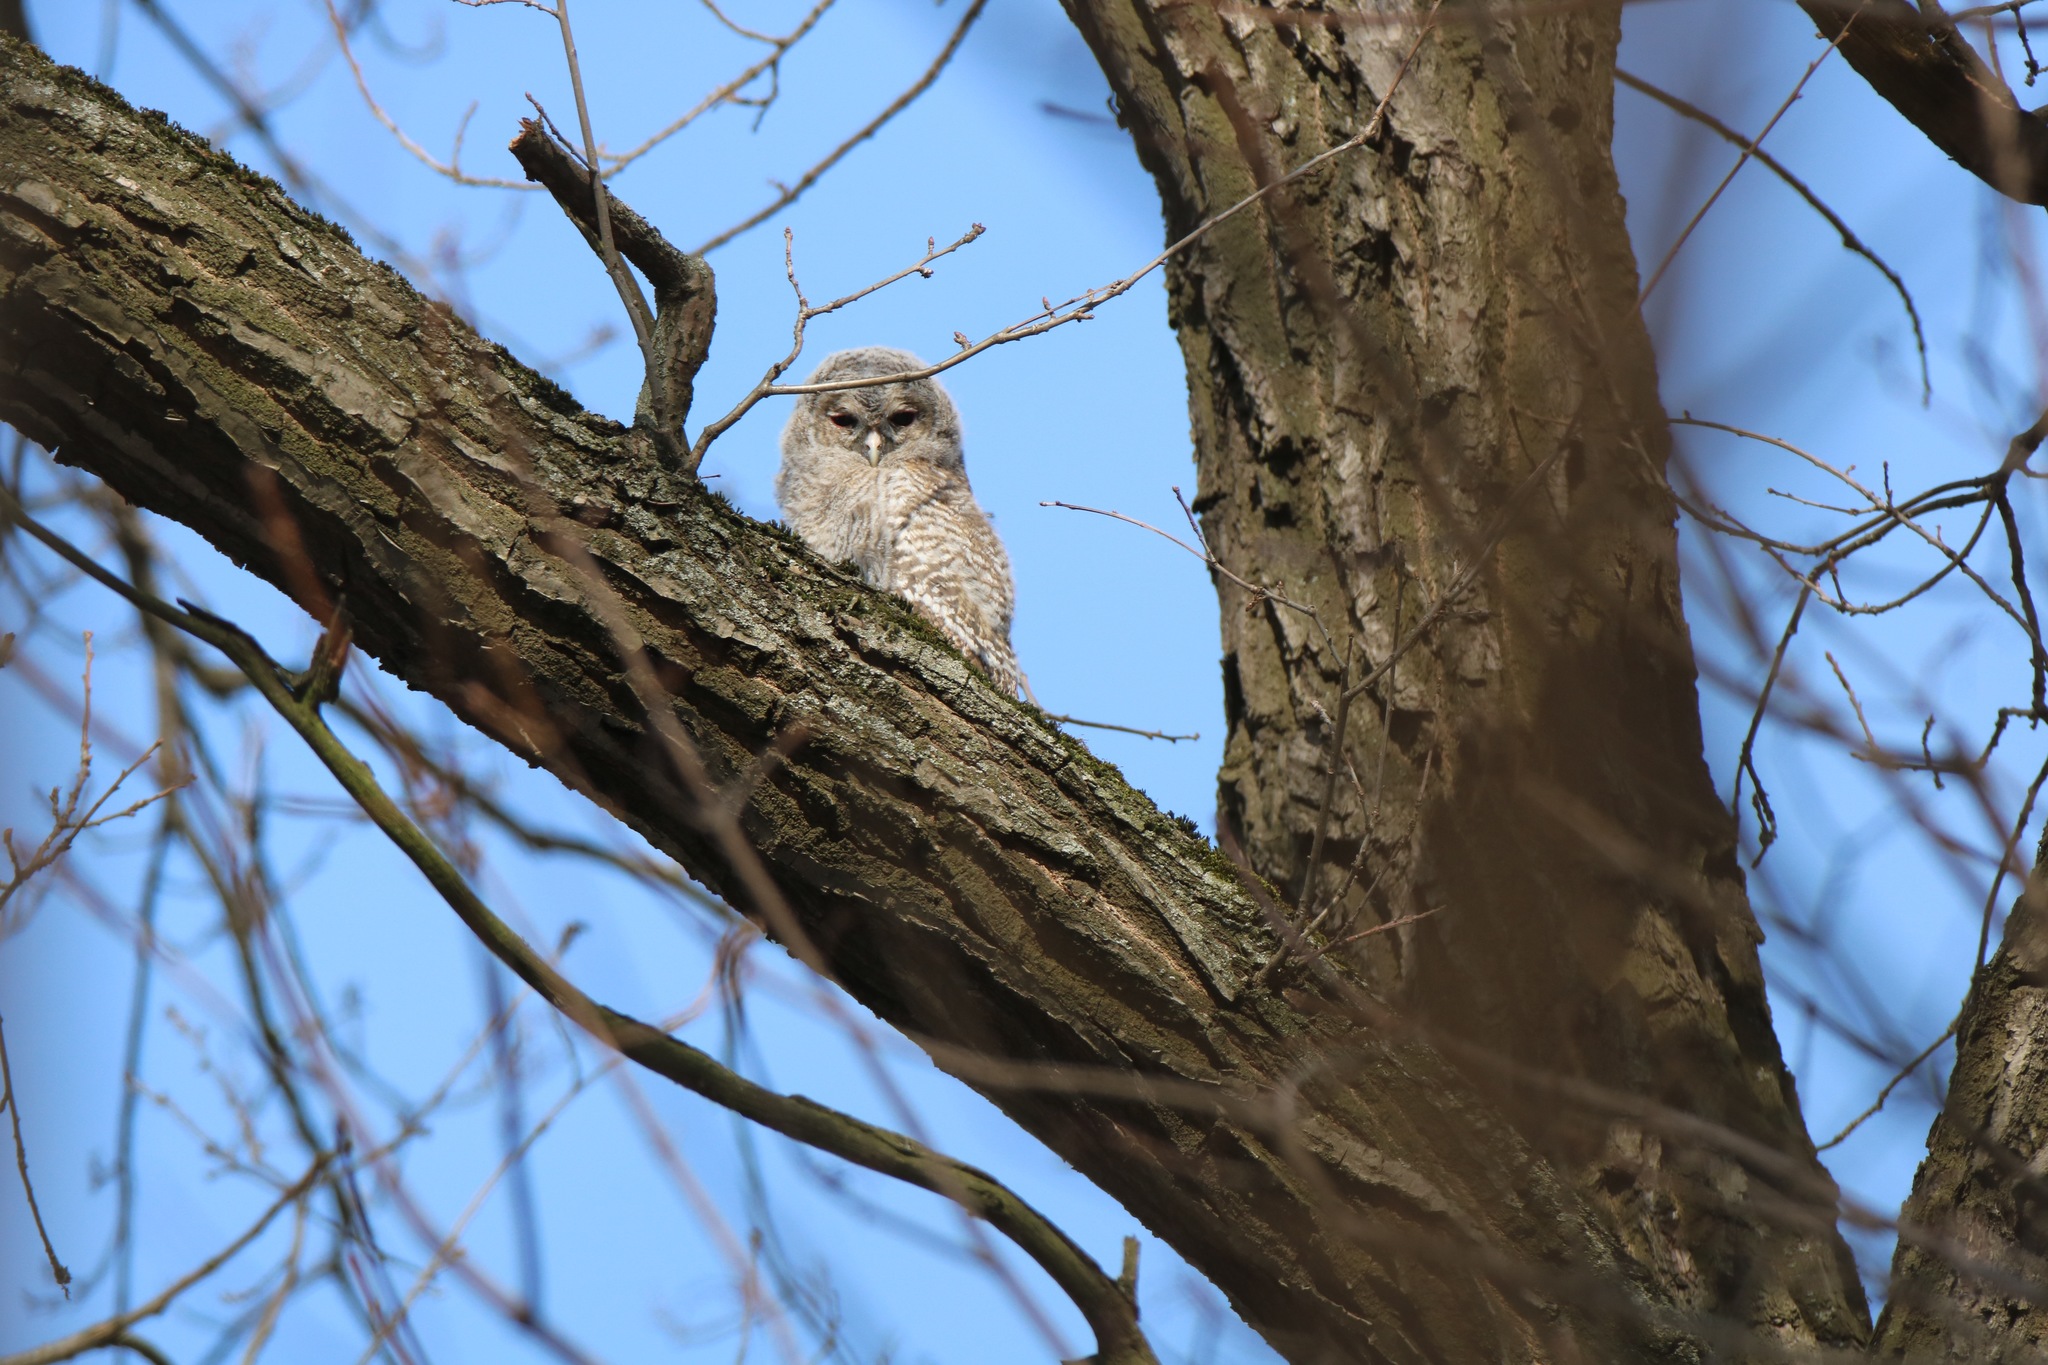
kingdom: Animalia
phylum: Chordata
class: Aves
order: Strigiformes
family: Strigidae
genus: Strix
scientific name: Strix aluco
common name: Tawny owl
